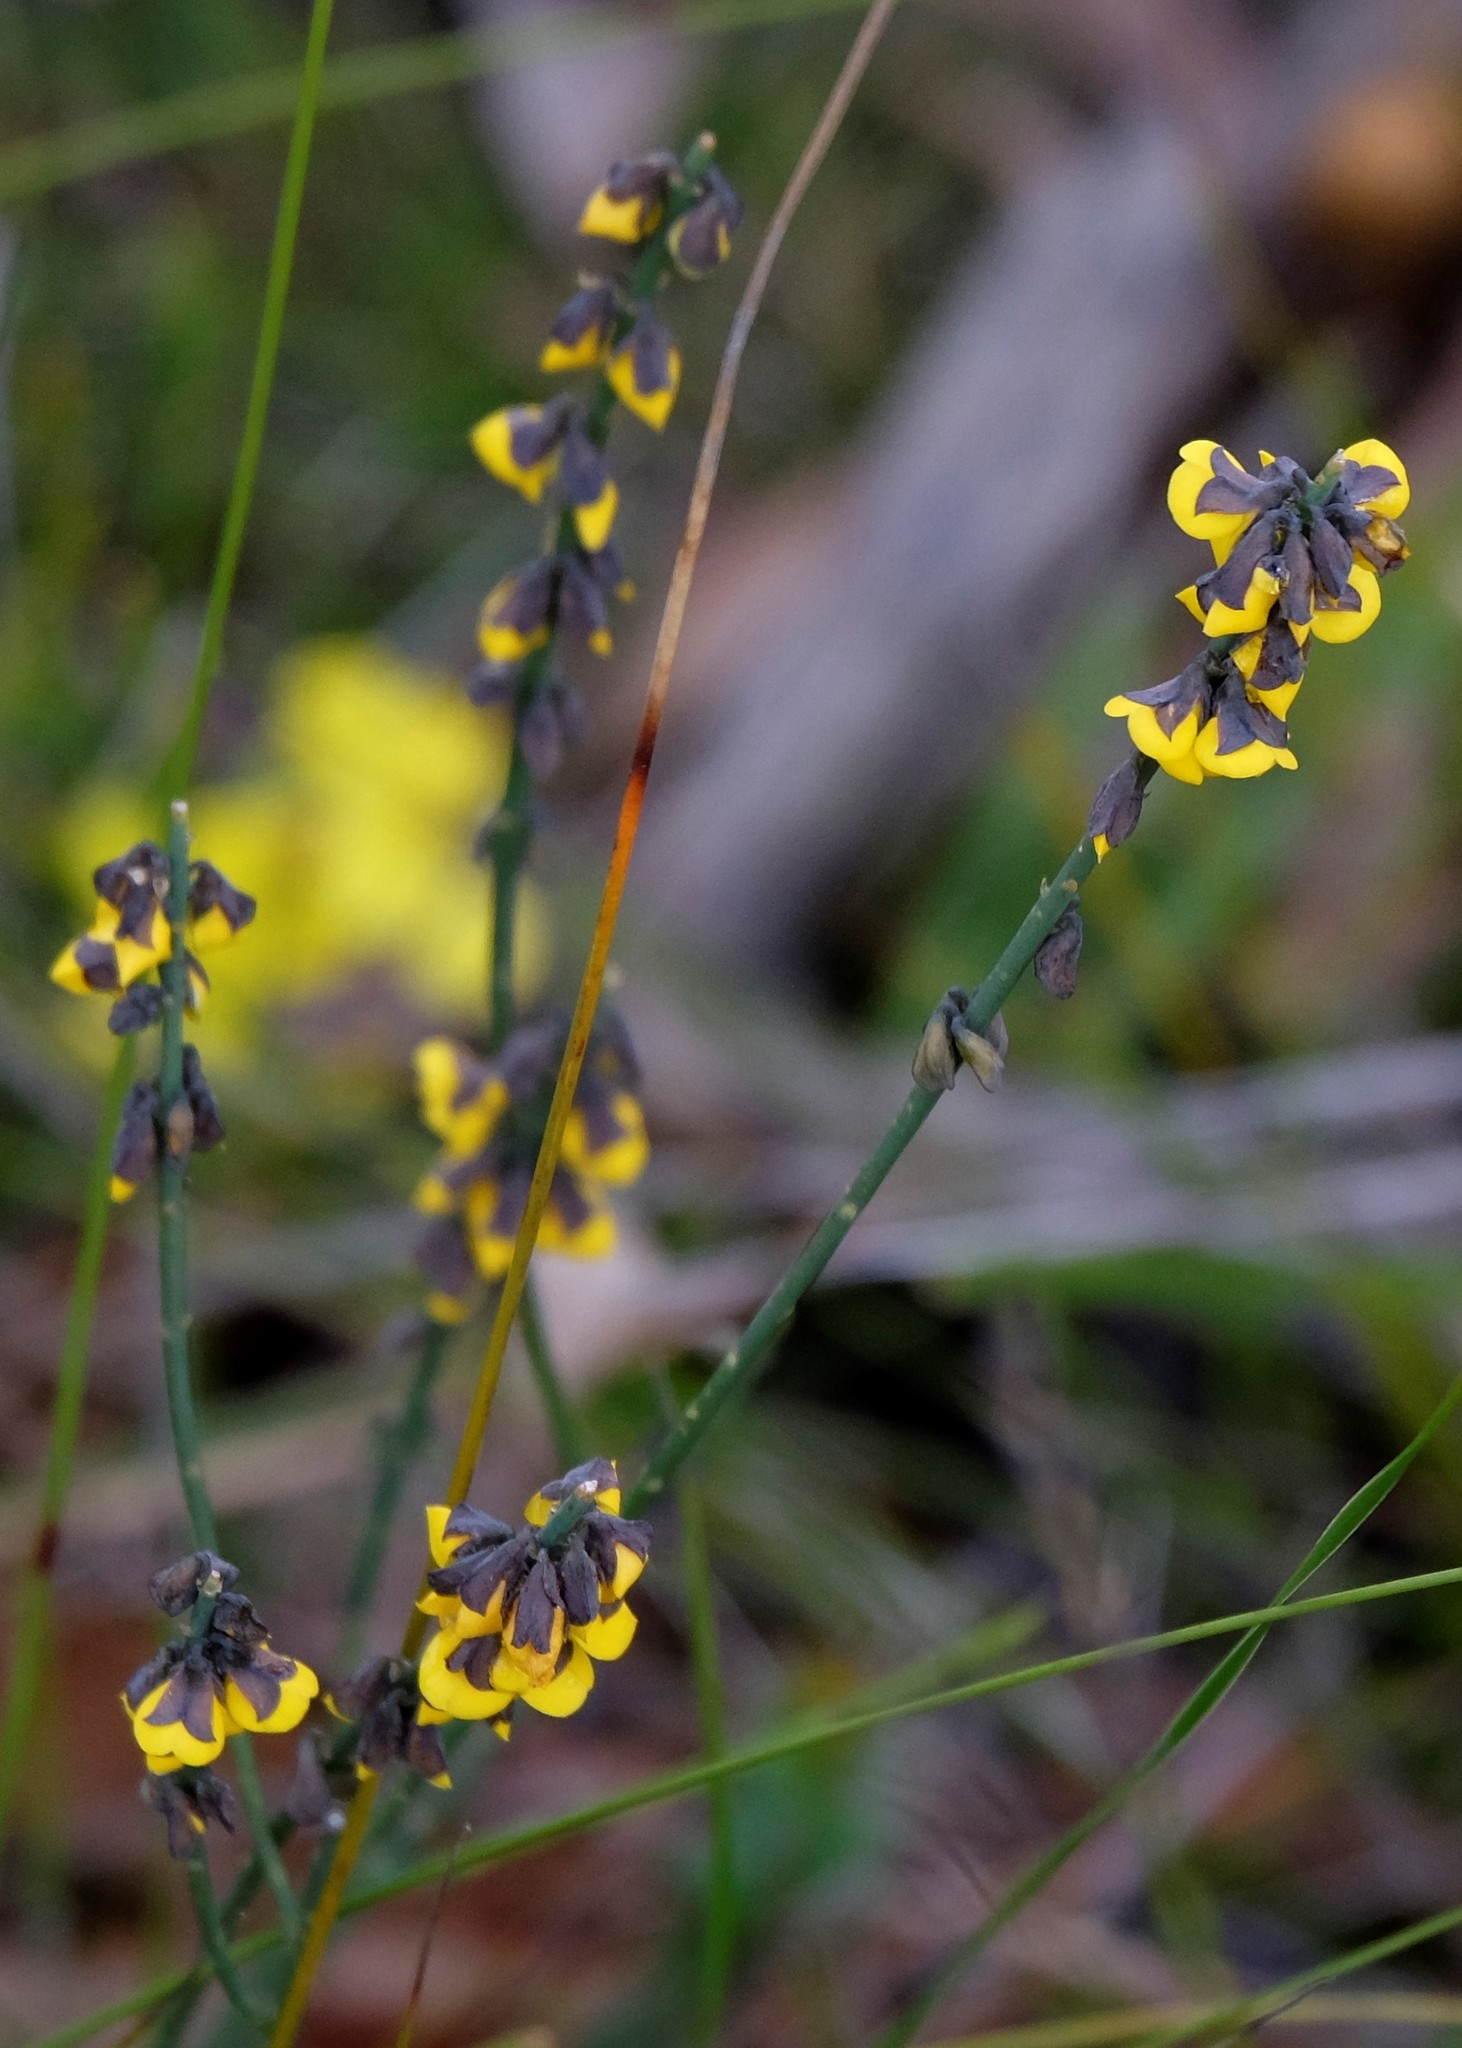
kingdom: Plantae
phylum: Tracheophyta
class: Magnoliopsida
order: Fabales
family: Fabaceae
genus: Sphaerolobium
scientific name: Sphaerolobium minus
